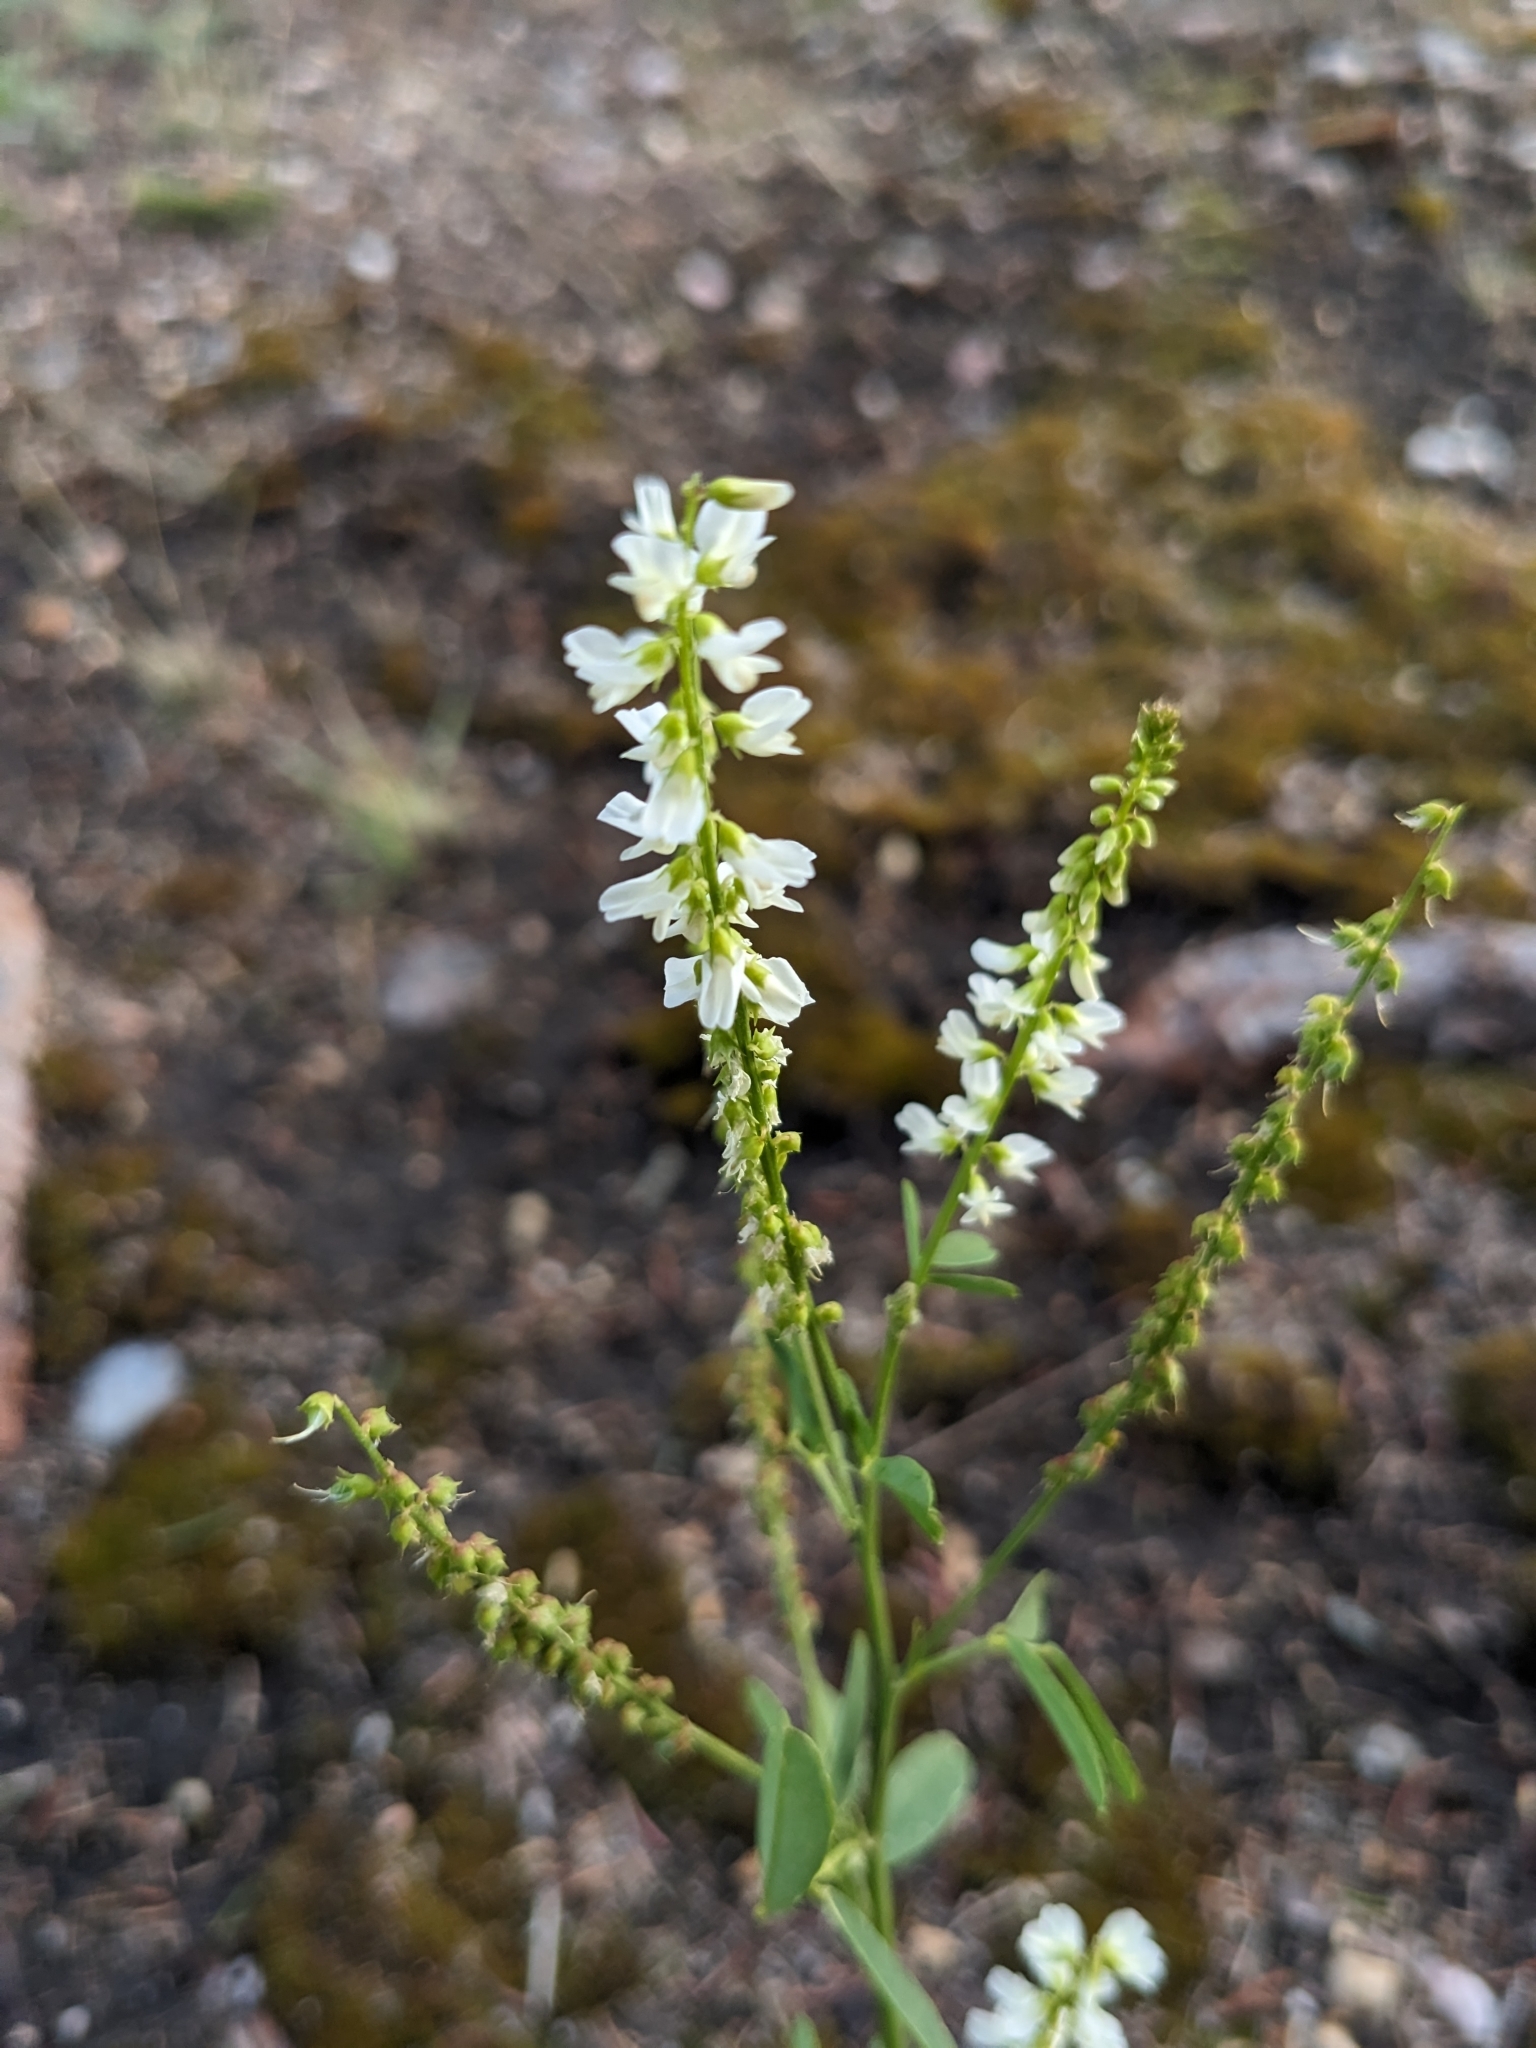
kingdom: Plantae
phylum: Tracheophyta
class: Magnoliopsida
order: Fabales
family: Fabaceae
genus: Melilotus
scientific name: Melilotus albus
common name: White melilot
